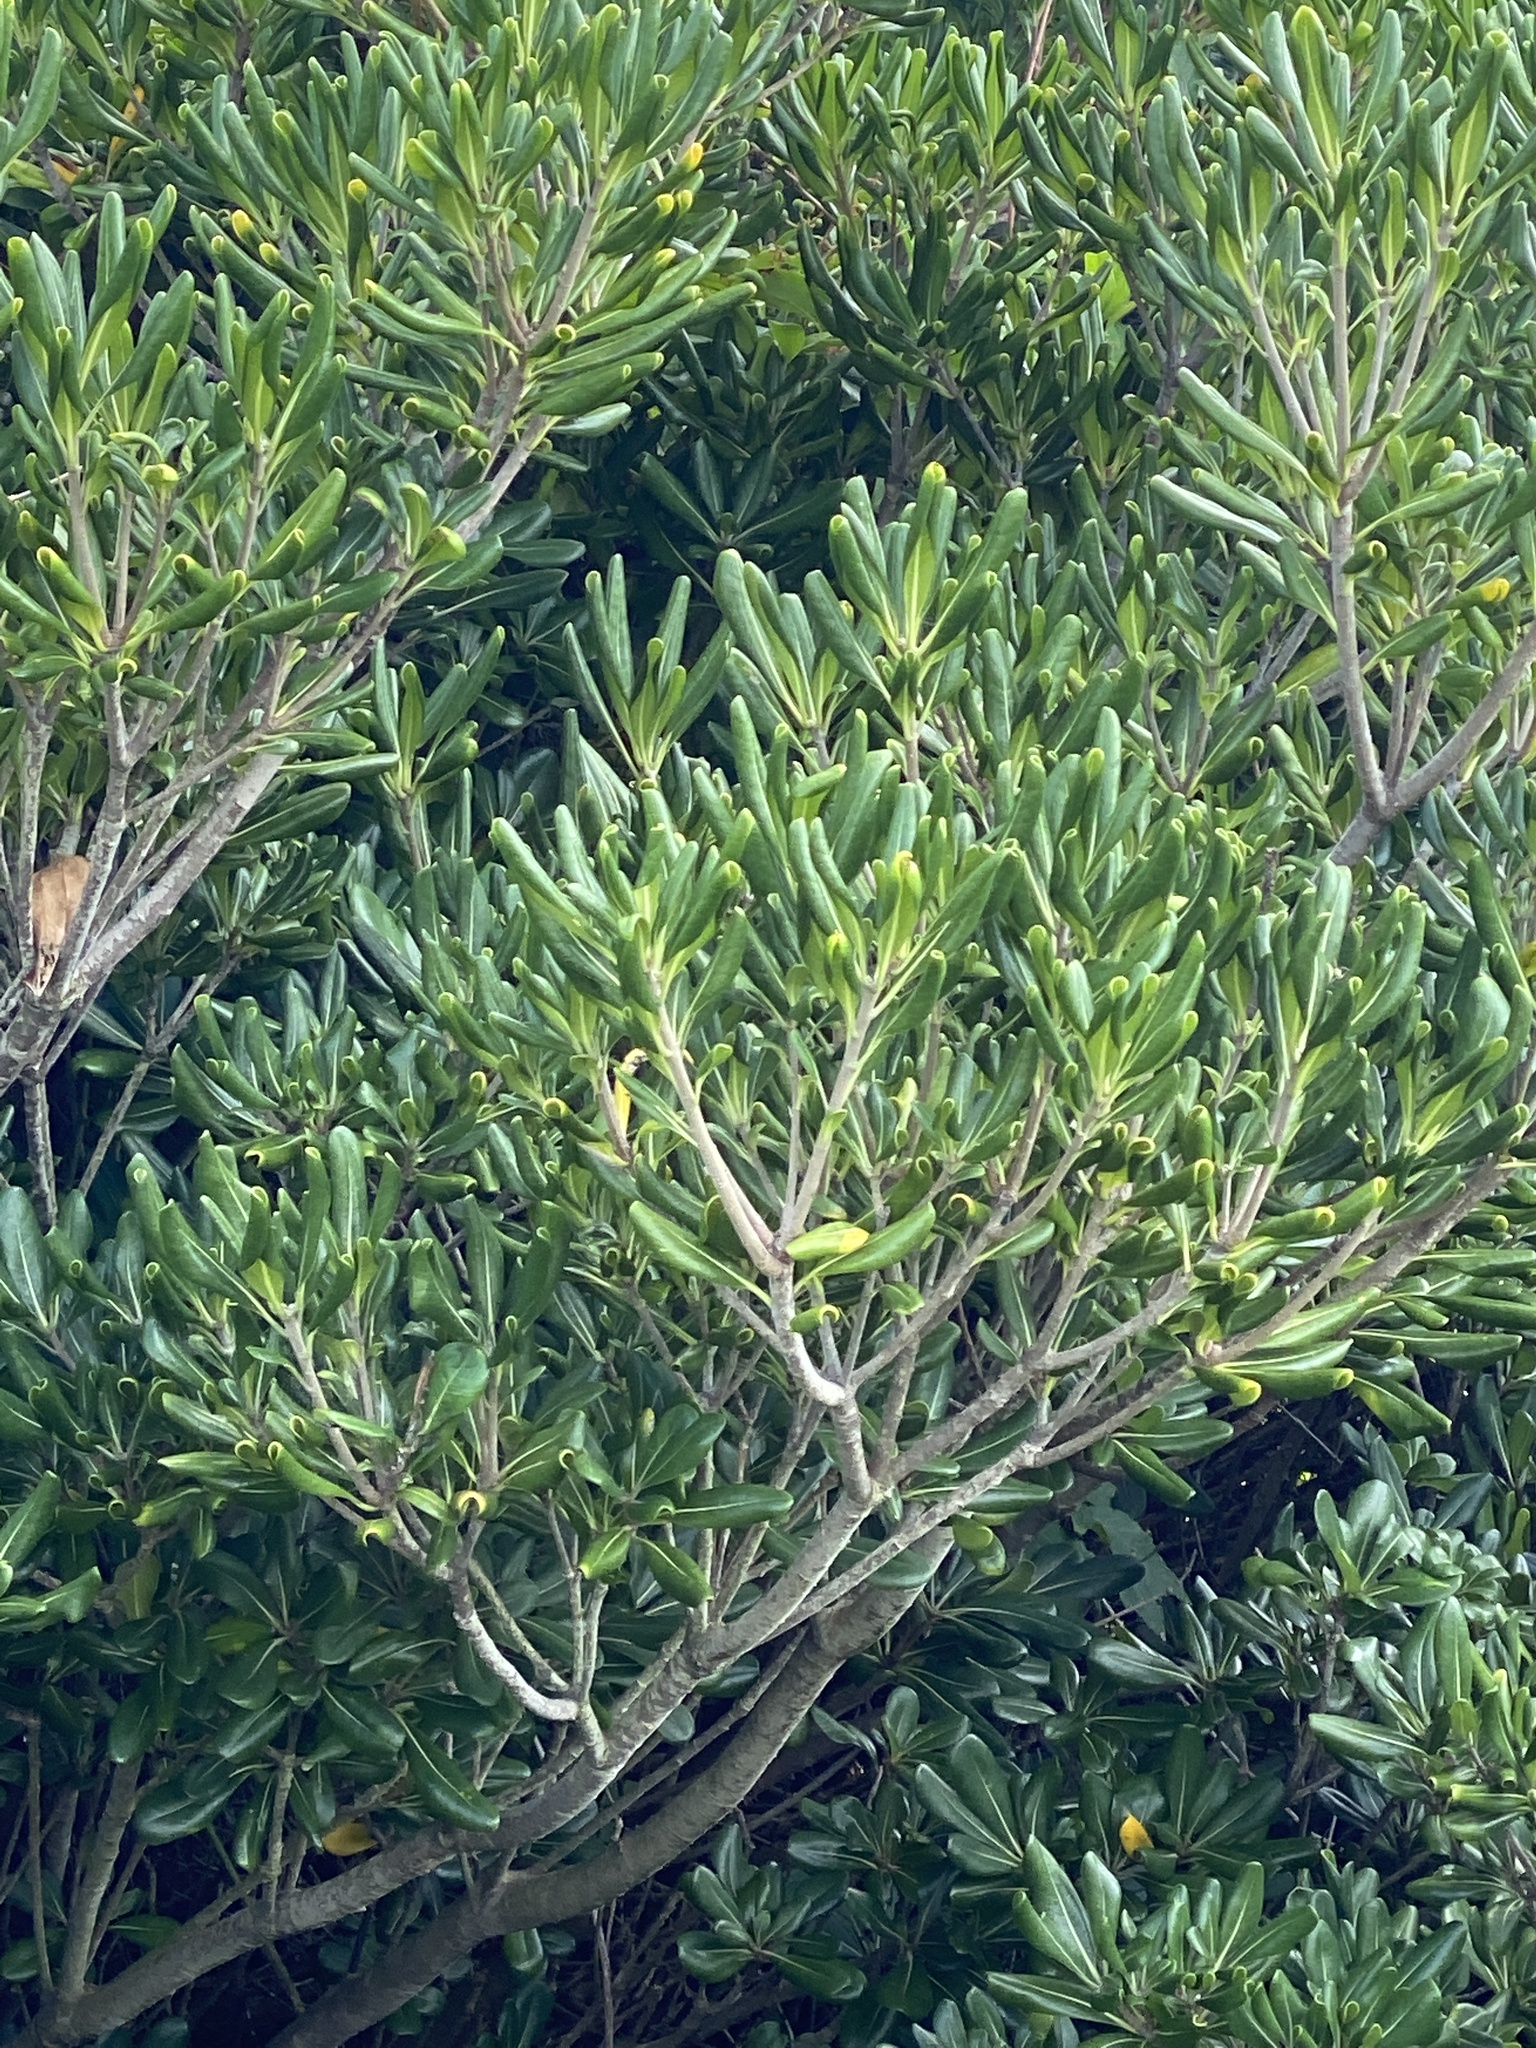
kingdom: Plantae
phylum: Tracheophyta
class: Magnoliopsida
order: Apiales
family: Pittosporaceae
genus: Pittosporum
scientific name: Pittosporum tobira
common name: Japanese cheesewood
